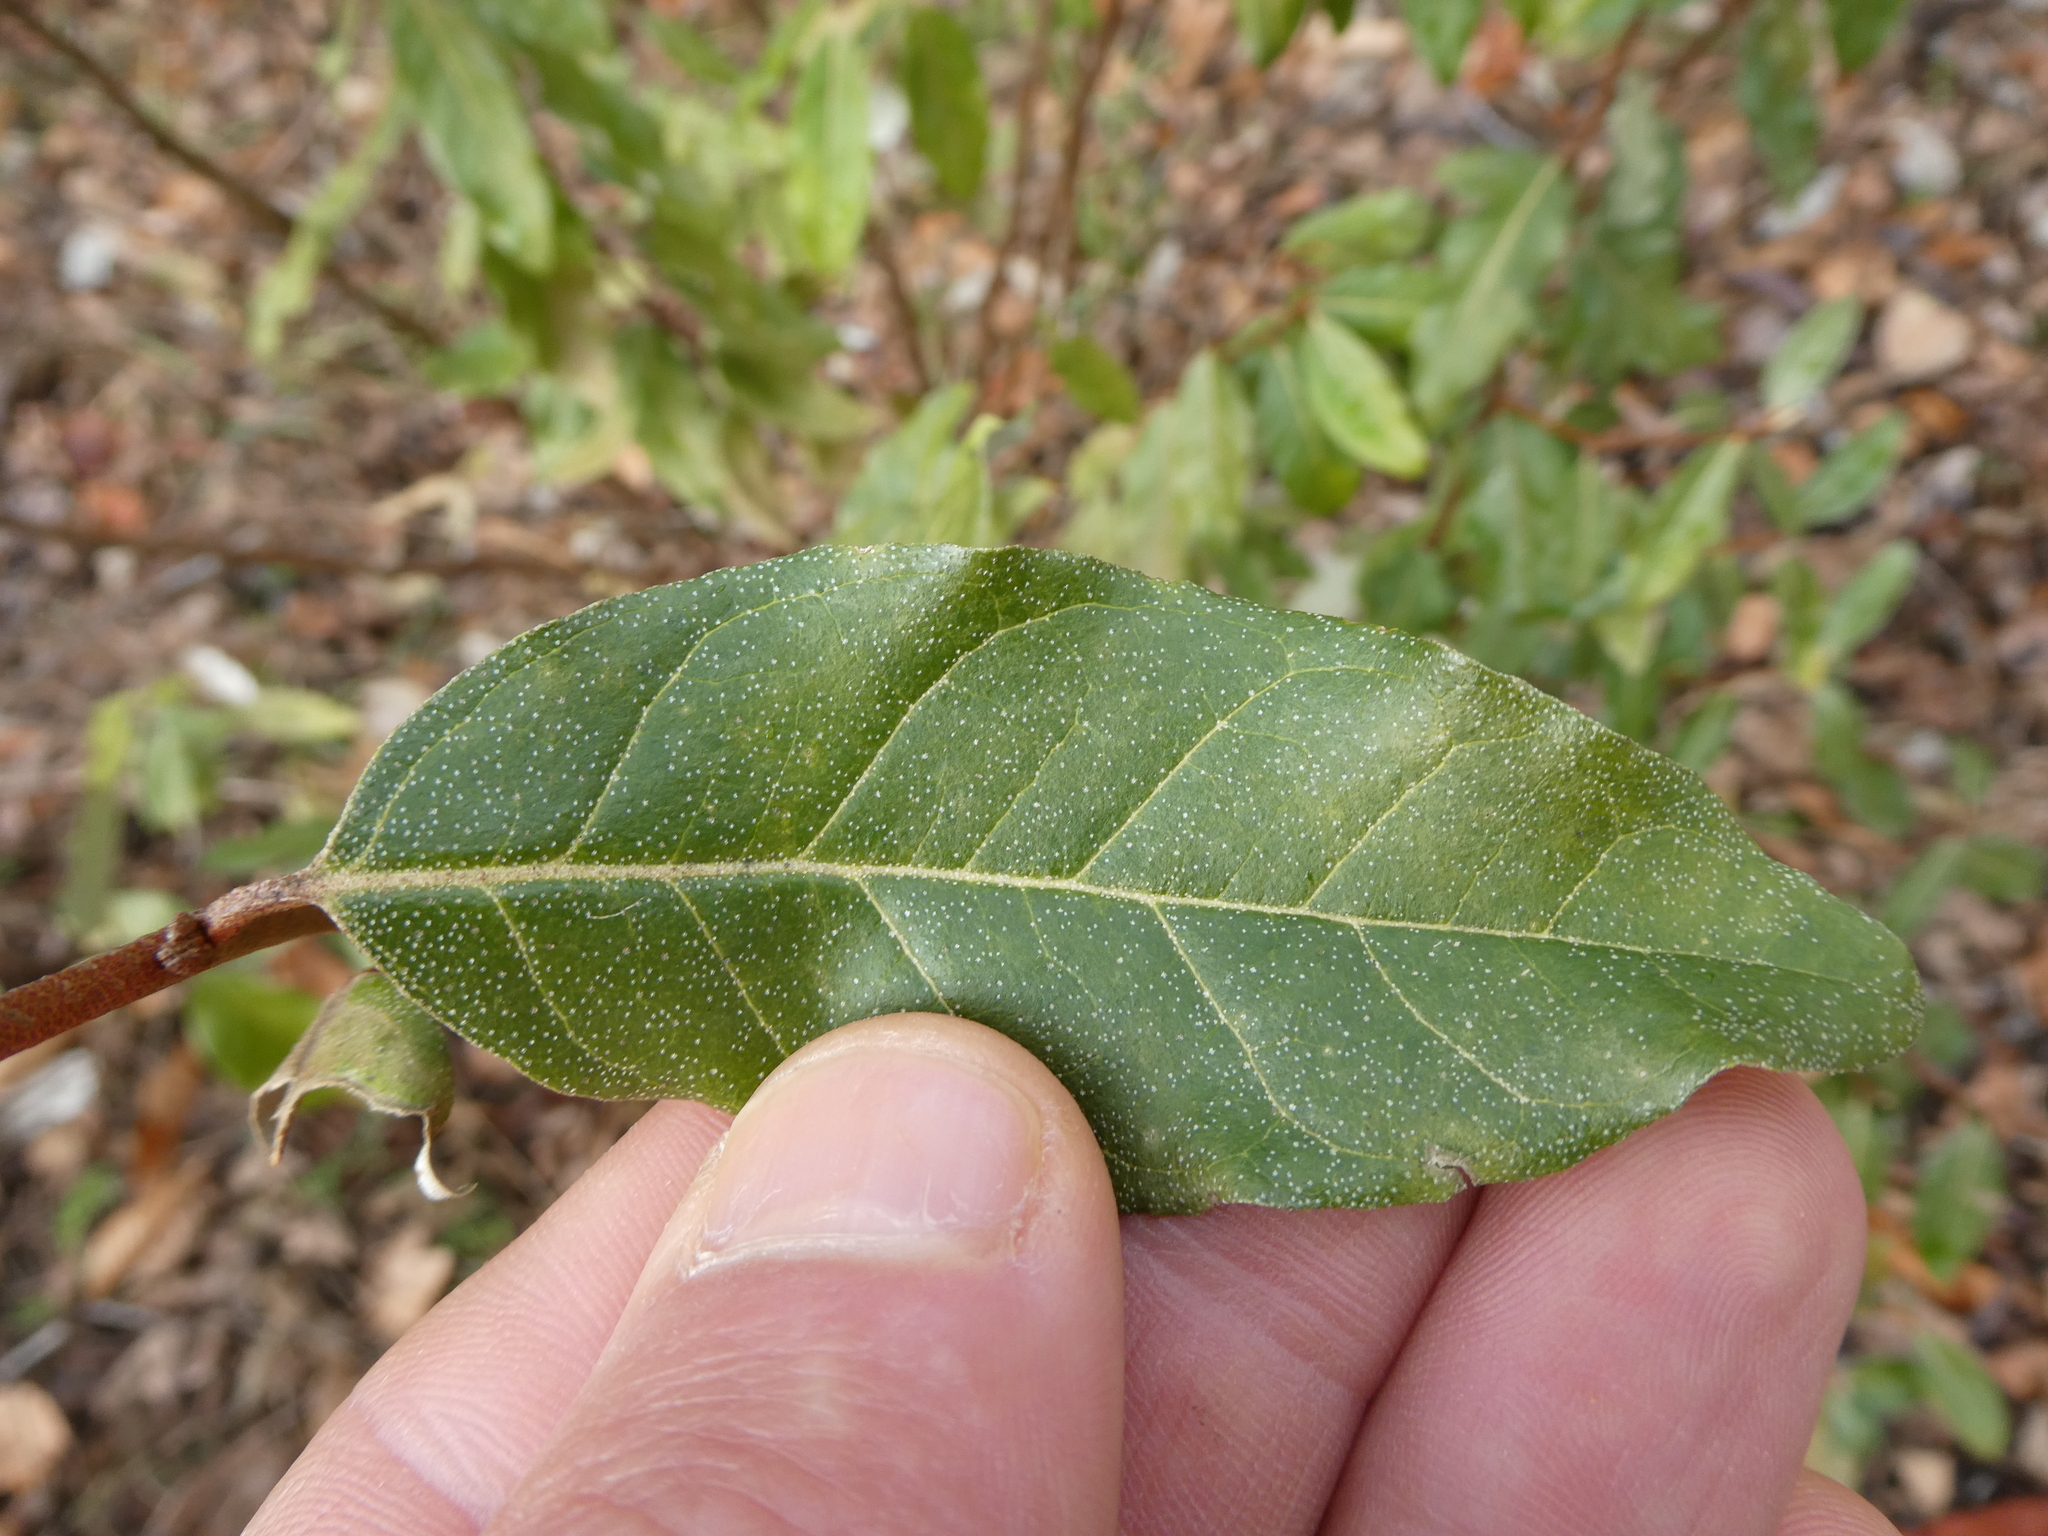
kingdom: Plantae
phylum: Tracheophyta
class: Magnoliopsida
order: Rosales
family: Elaeagnaceae
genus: Elaeagnus
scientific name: Elaeagnus umbellata
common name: Autumn olive
